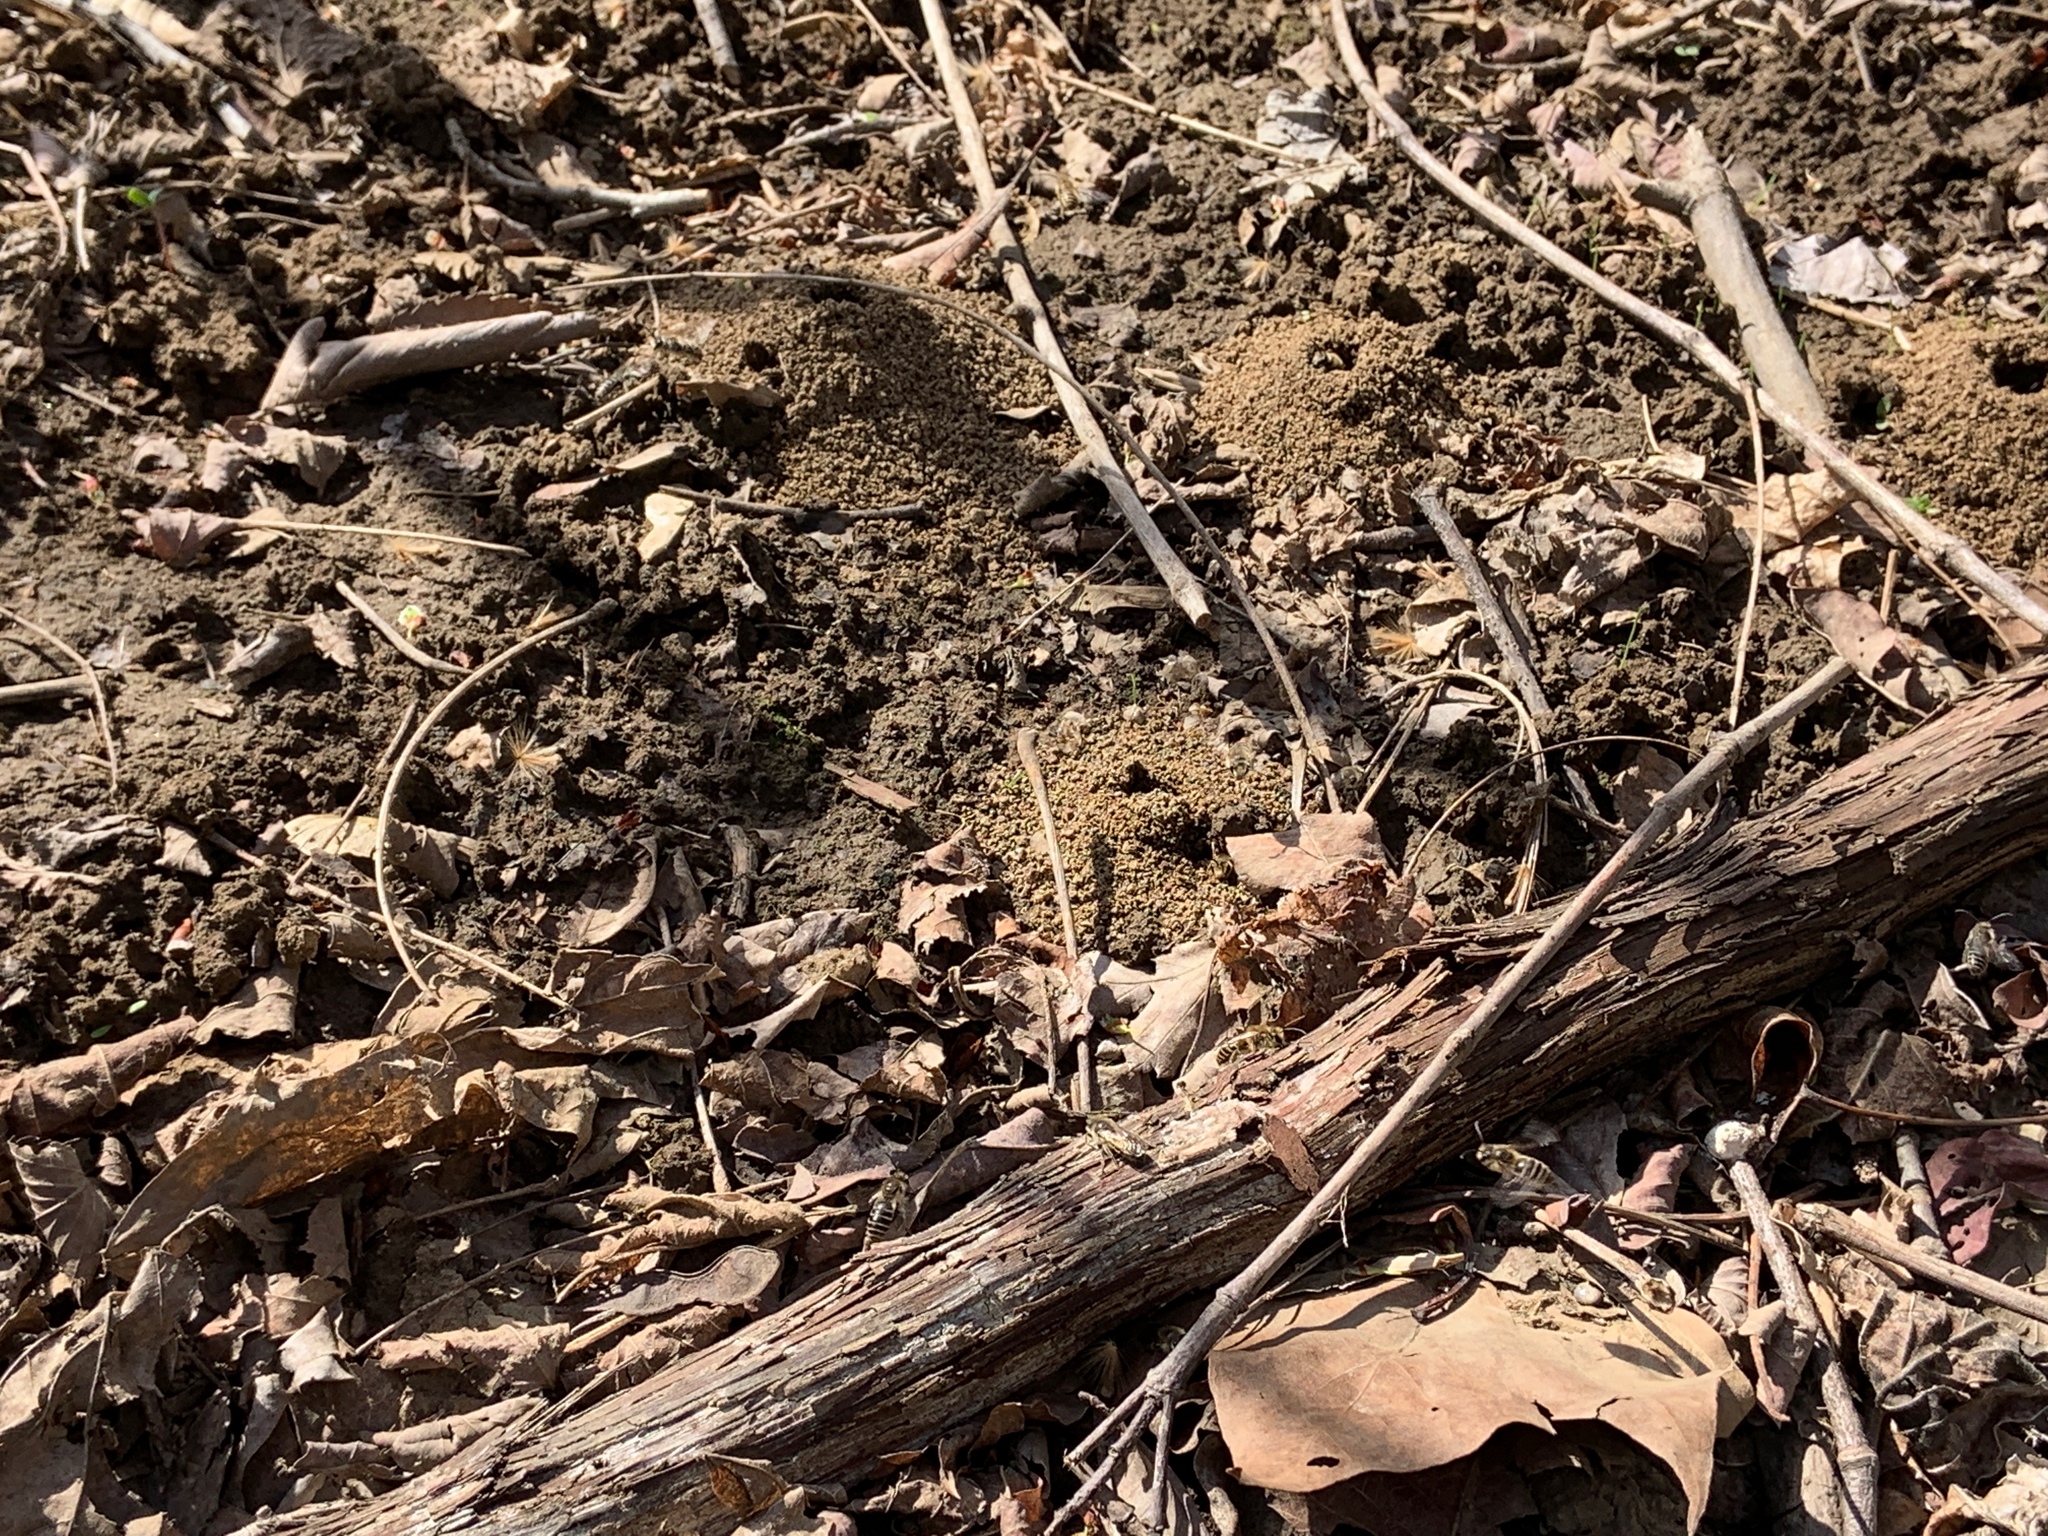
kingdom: Animalia
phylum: Arthropoda
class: Insecta
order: Hymenoptera
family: Colletidae
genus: Colletes
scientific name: Colletes inaequalis
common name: Unequal cellophane bee
